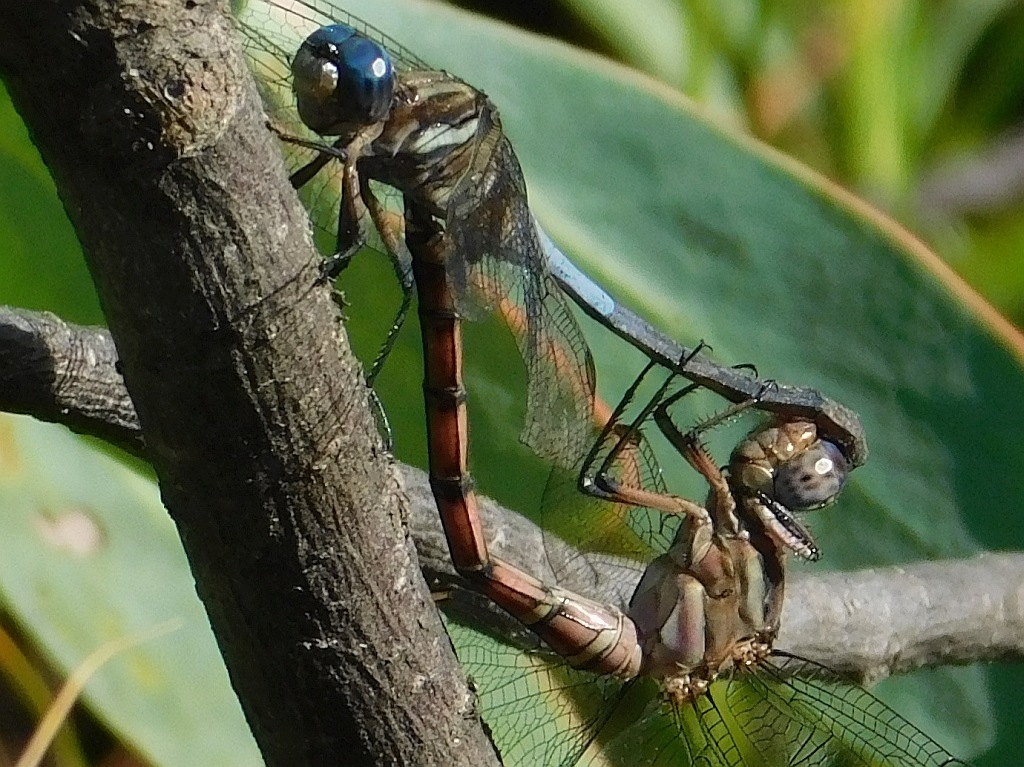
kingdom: Animalia
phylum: Arthropoda
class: Insecta
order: Odonata
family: Libellulidae
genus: Orthetrum
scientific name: Orthetrum julia
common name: Julia skimmer
